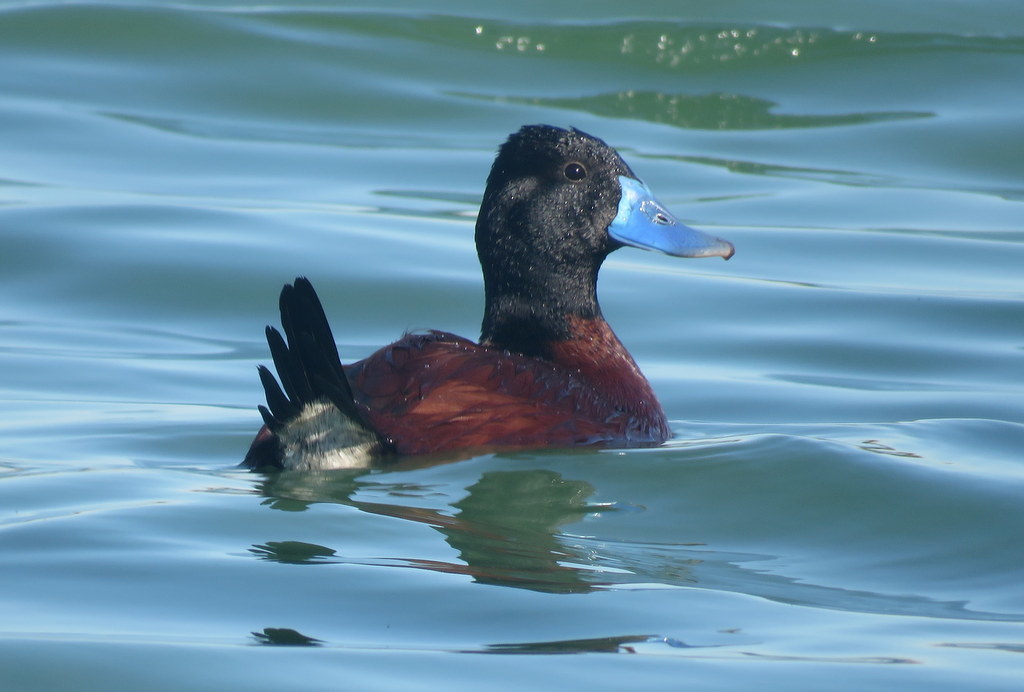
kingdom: Animalia
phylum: Chordata
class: Aves
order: Anseriformes
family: Anatidae
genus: Oxyura
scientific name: Oxyura vittata
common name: Lake duck
